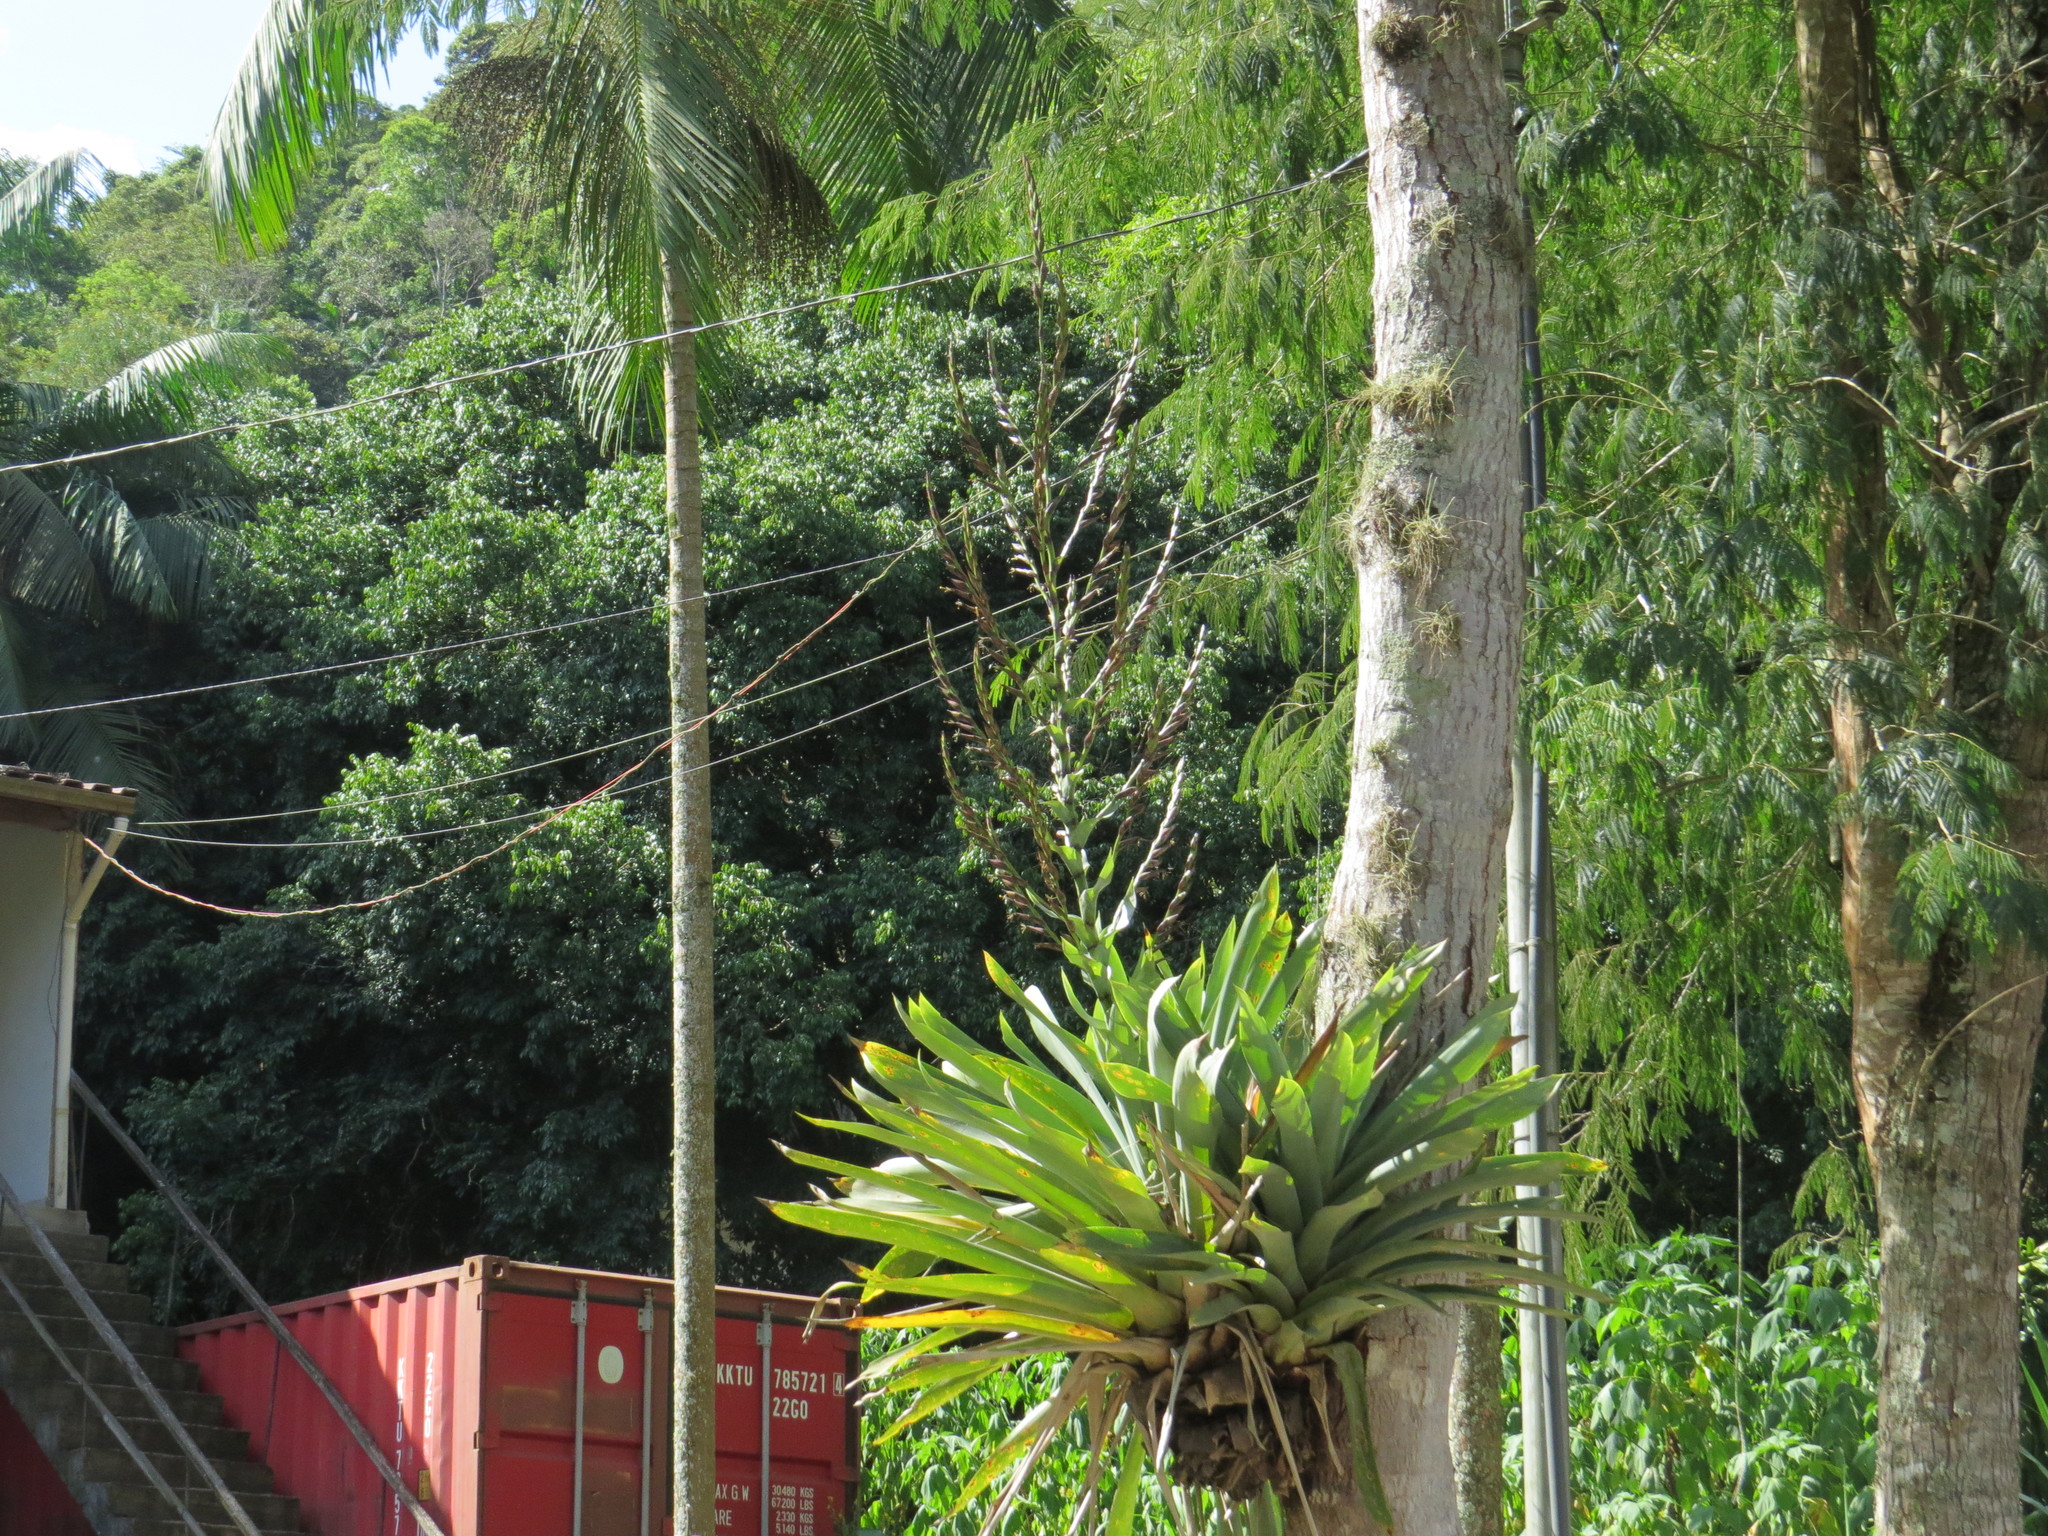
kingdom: Plantae
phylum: Tracheophyta
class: Liliopsida
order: Poales
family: Bromeliaceae
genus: Vriesea
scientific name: Vriesea gigantea
